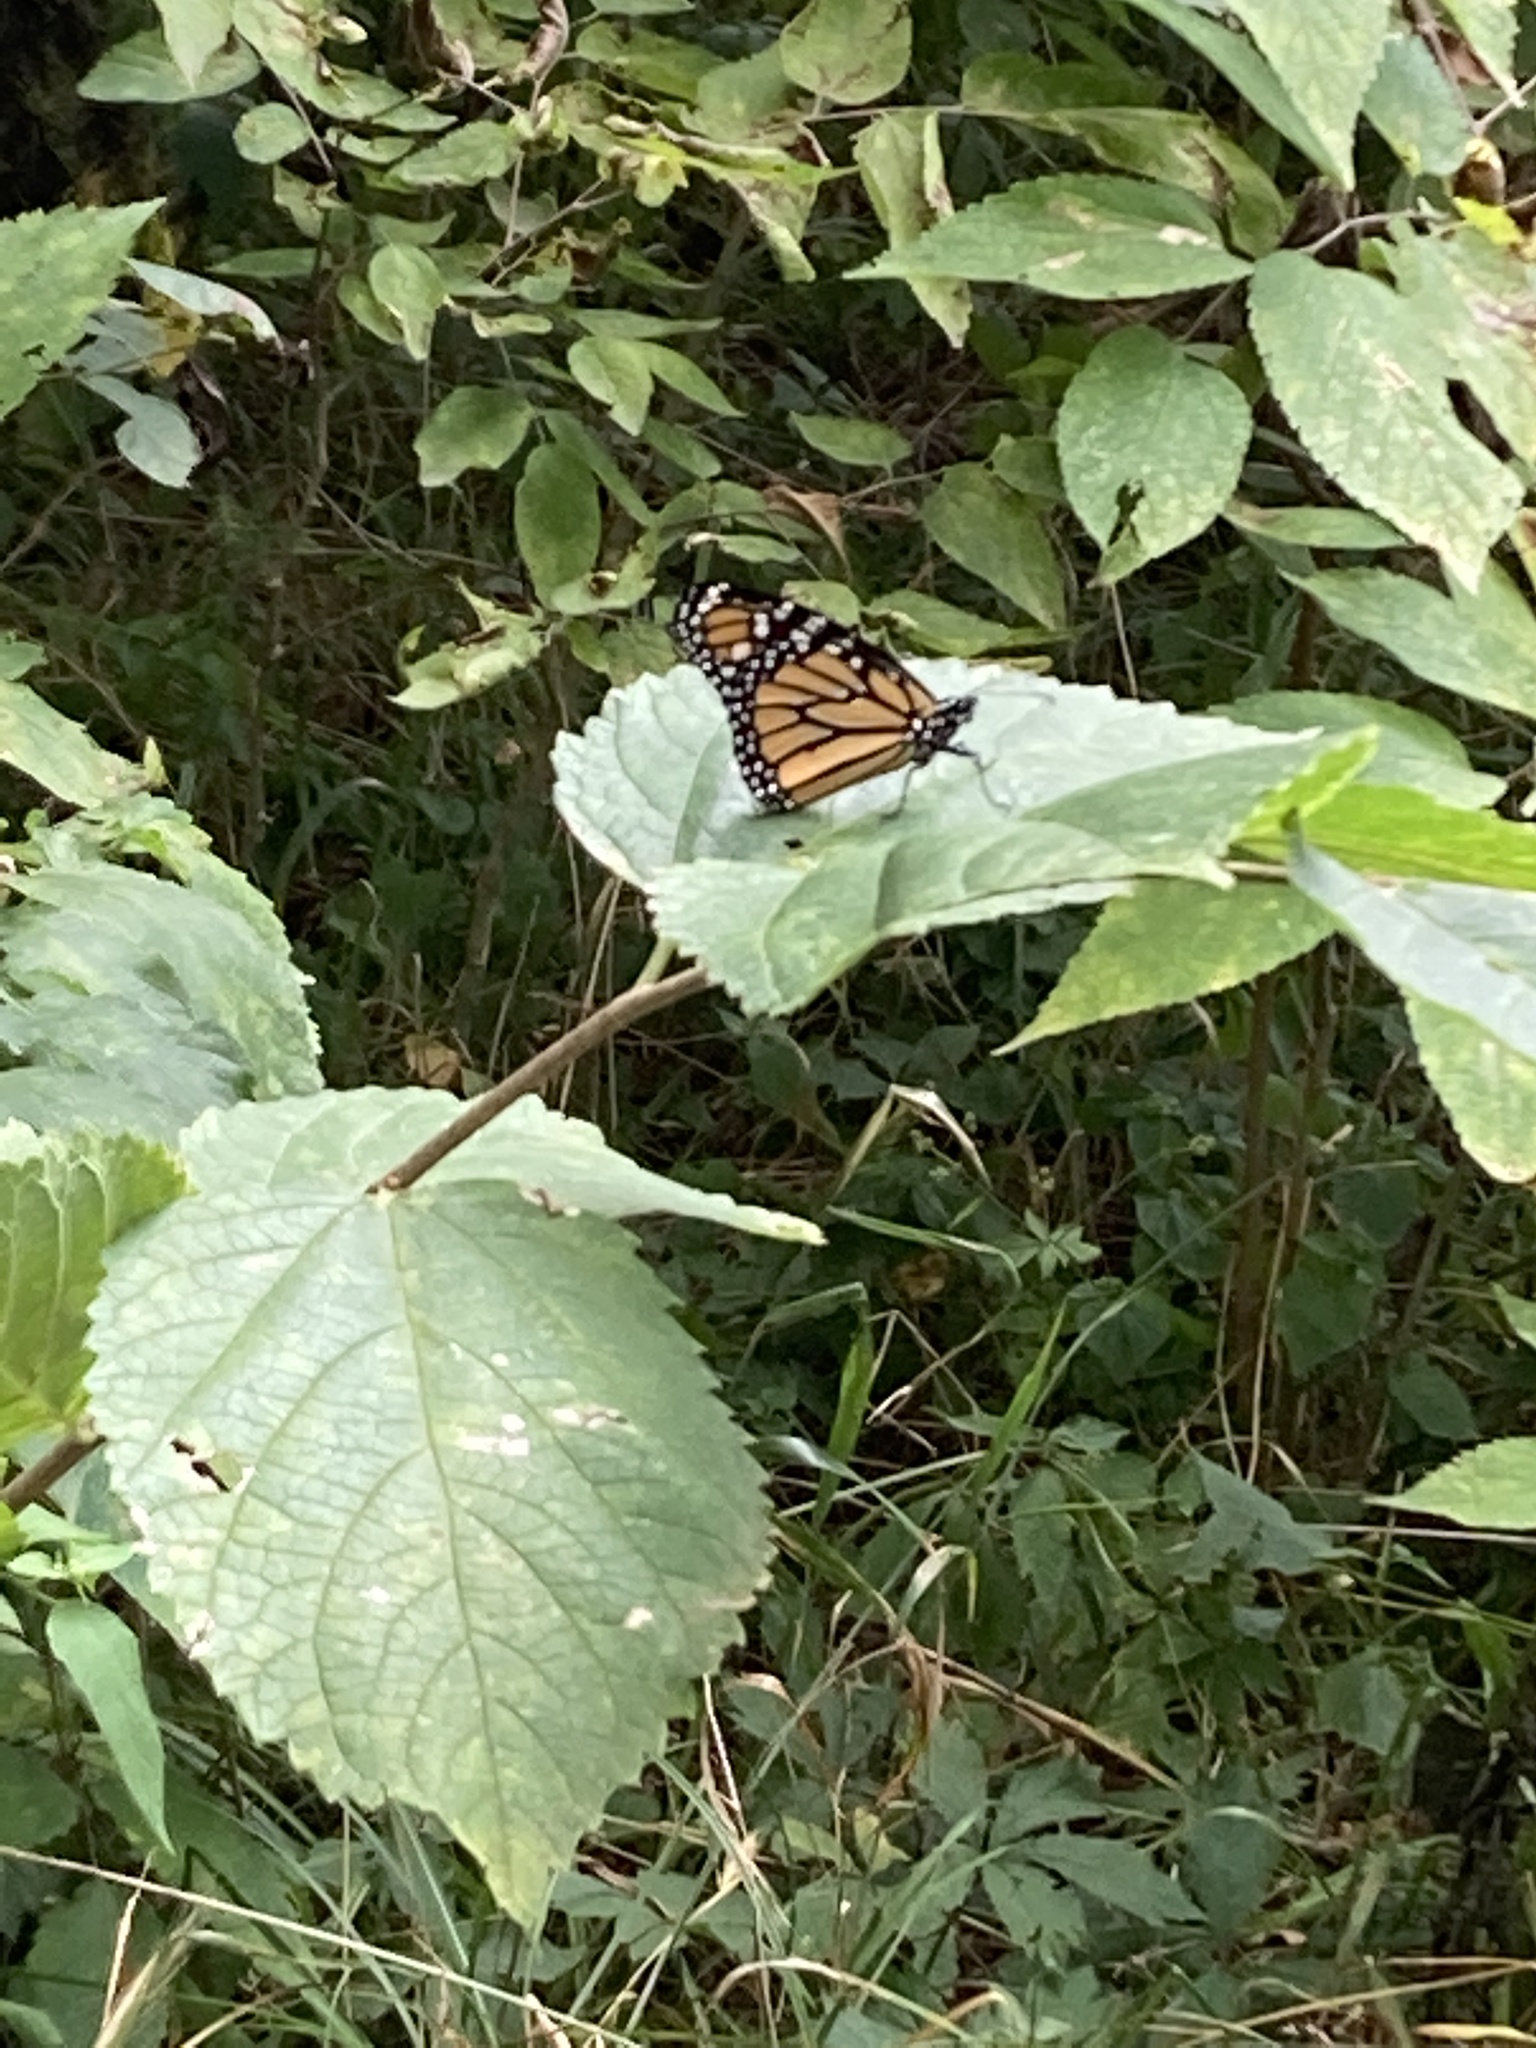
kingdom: Animalia
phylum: Arthropoda
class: Insecta
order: Lepidoptera
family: Nymphalidae
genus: Danaus
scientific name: Danaus plexippus
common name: Monarch
